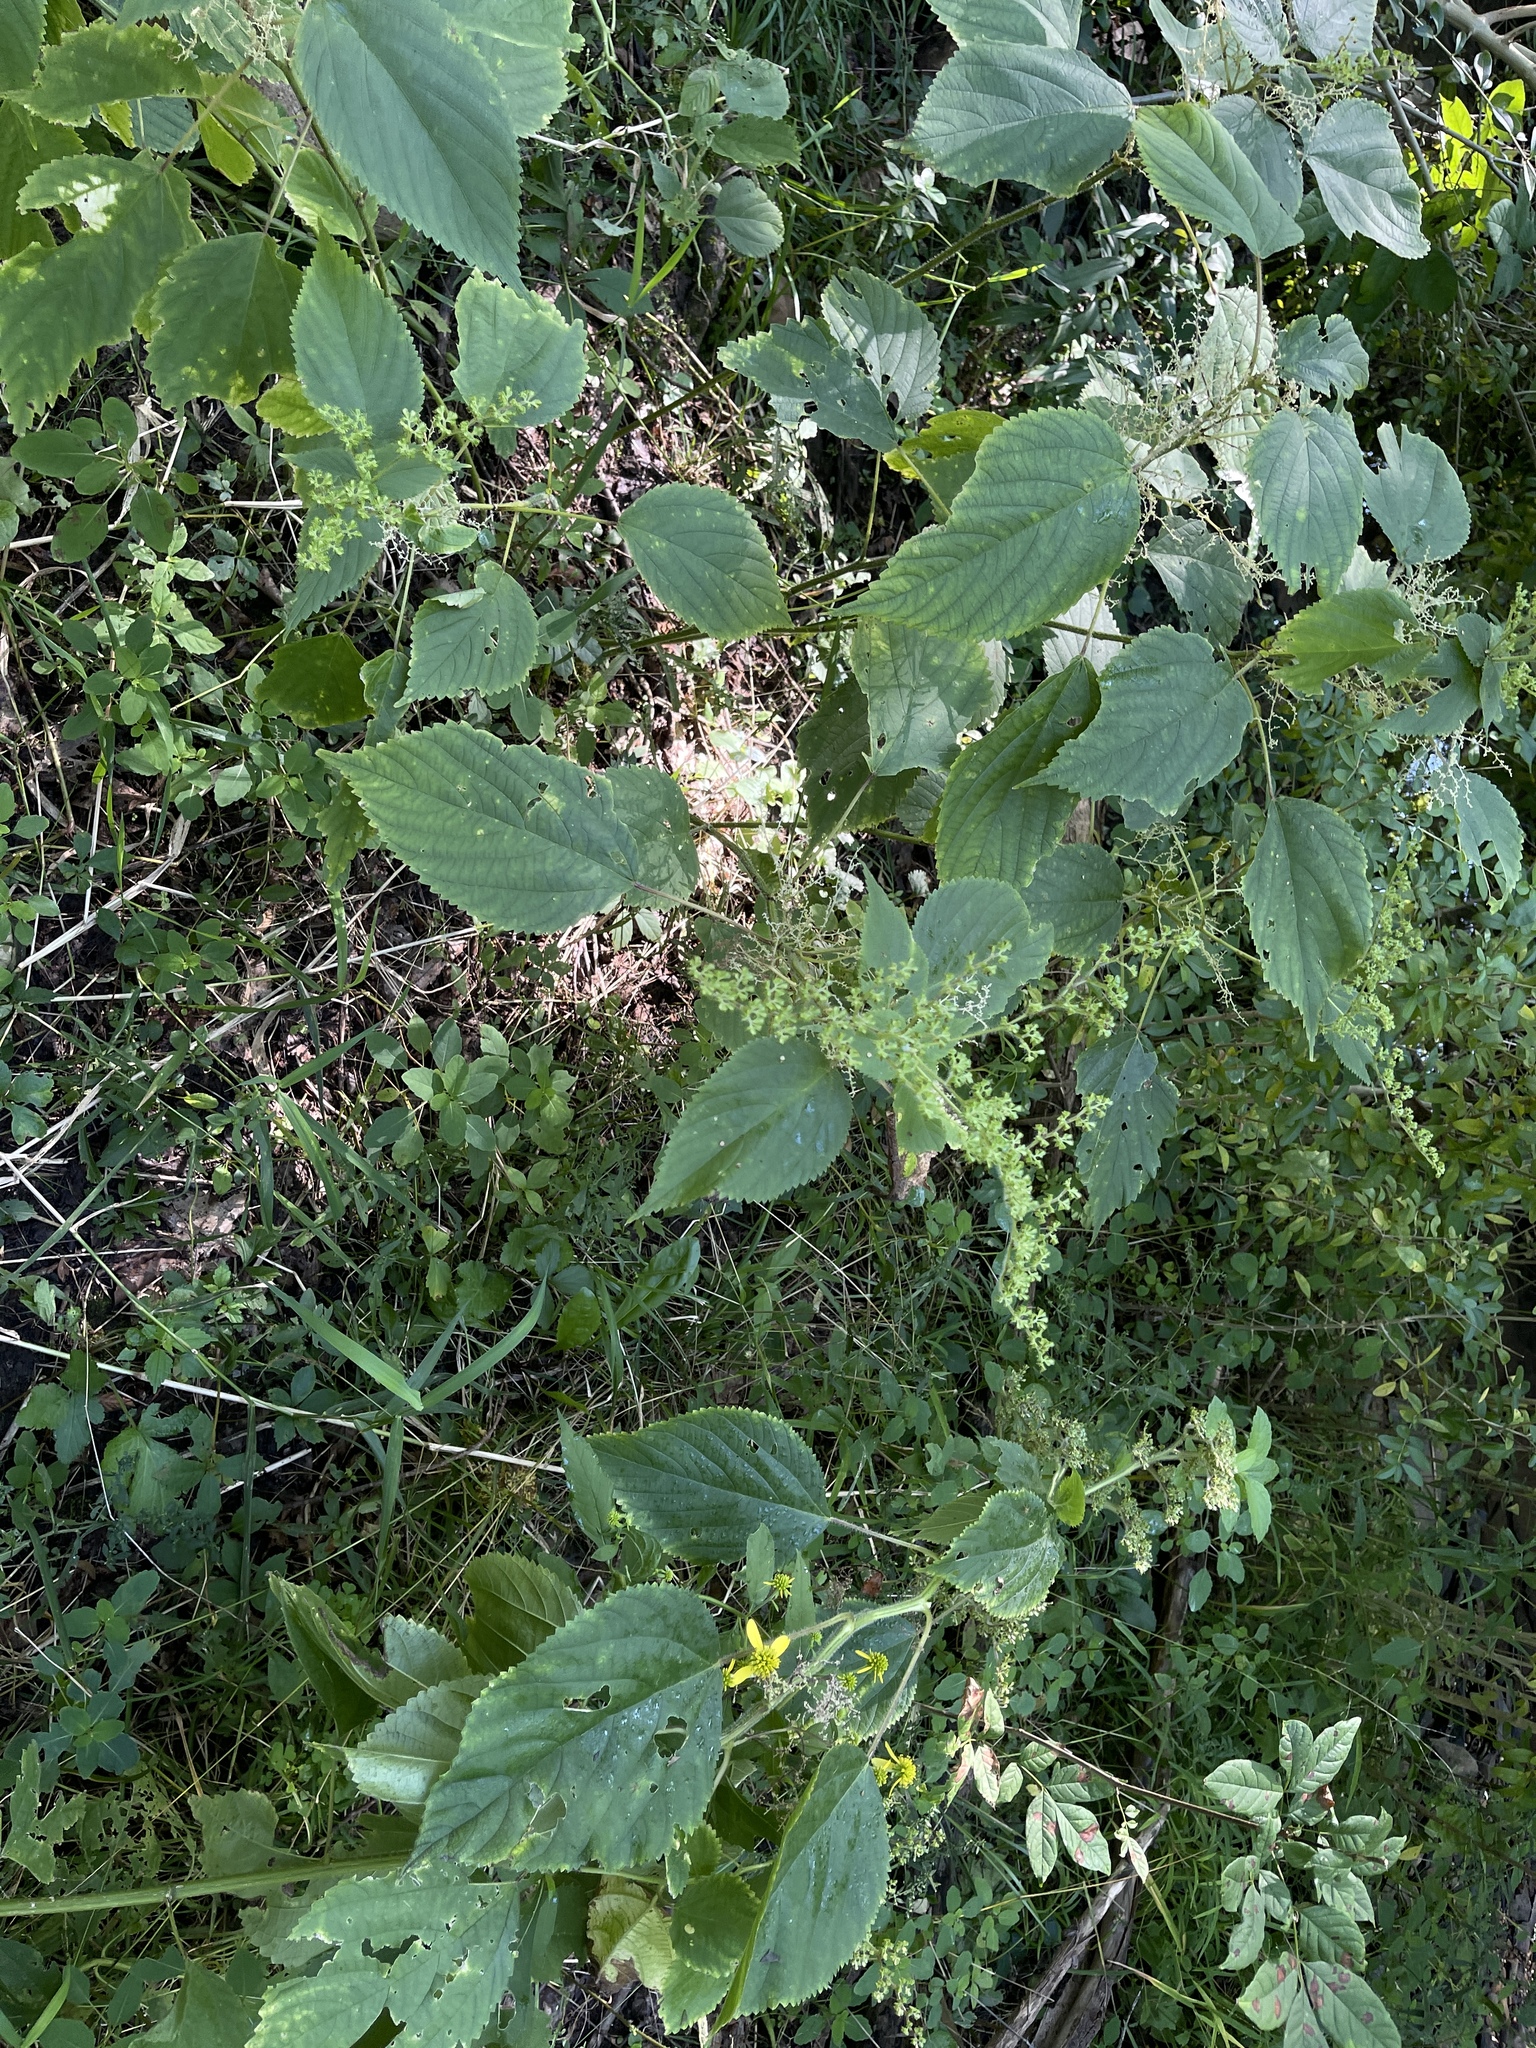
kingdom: Plantae
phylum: Tracheophyta
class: Magnoliopsida
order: Rosales
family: Urticaceae
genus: Laportea
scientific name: Laportea canadensis
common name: Canada nettle
